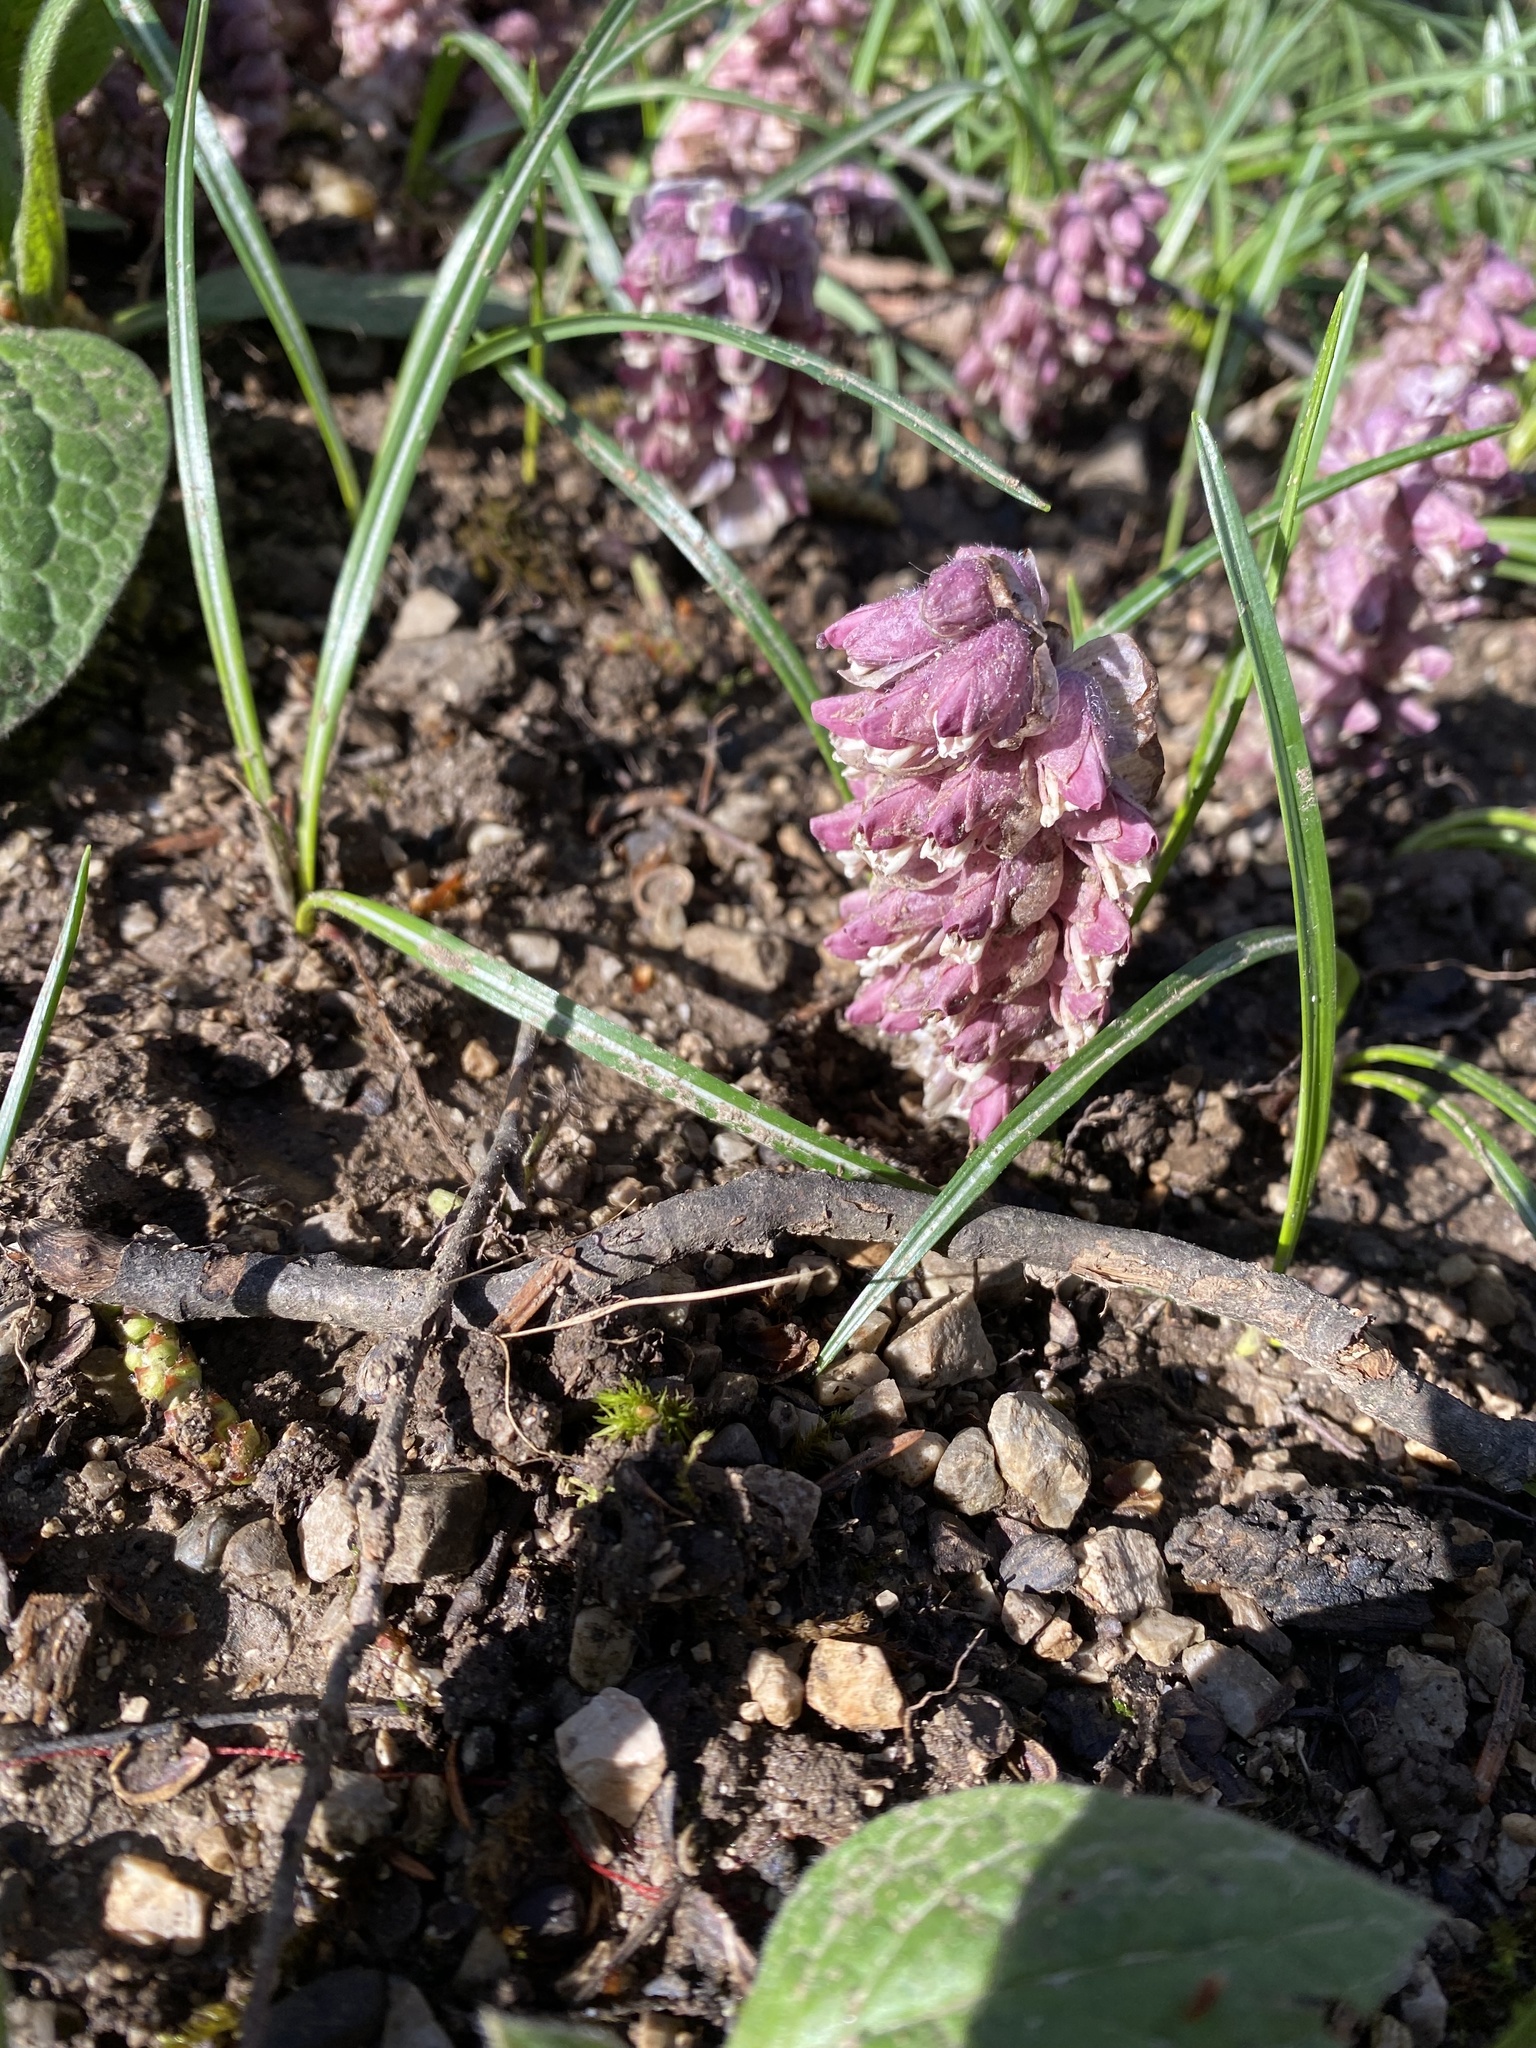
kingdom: Plantae
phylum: Tracheophyta
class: Magnoliopsida
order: Lamiales
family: Orobanchaceae
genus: Lathraea
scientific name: Lathraea squamaria
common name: Toothwort
